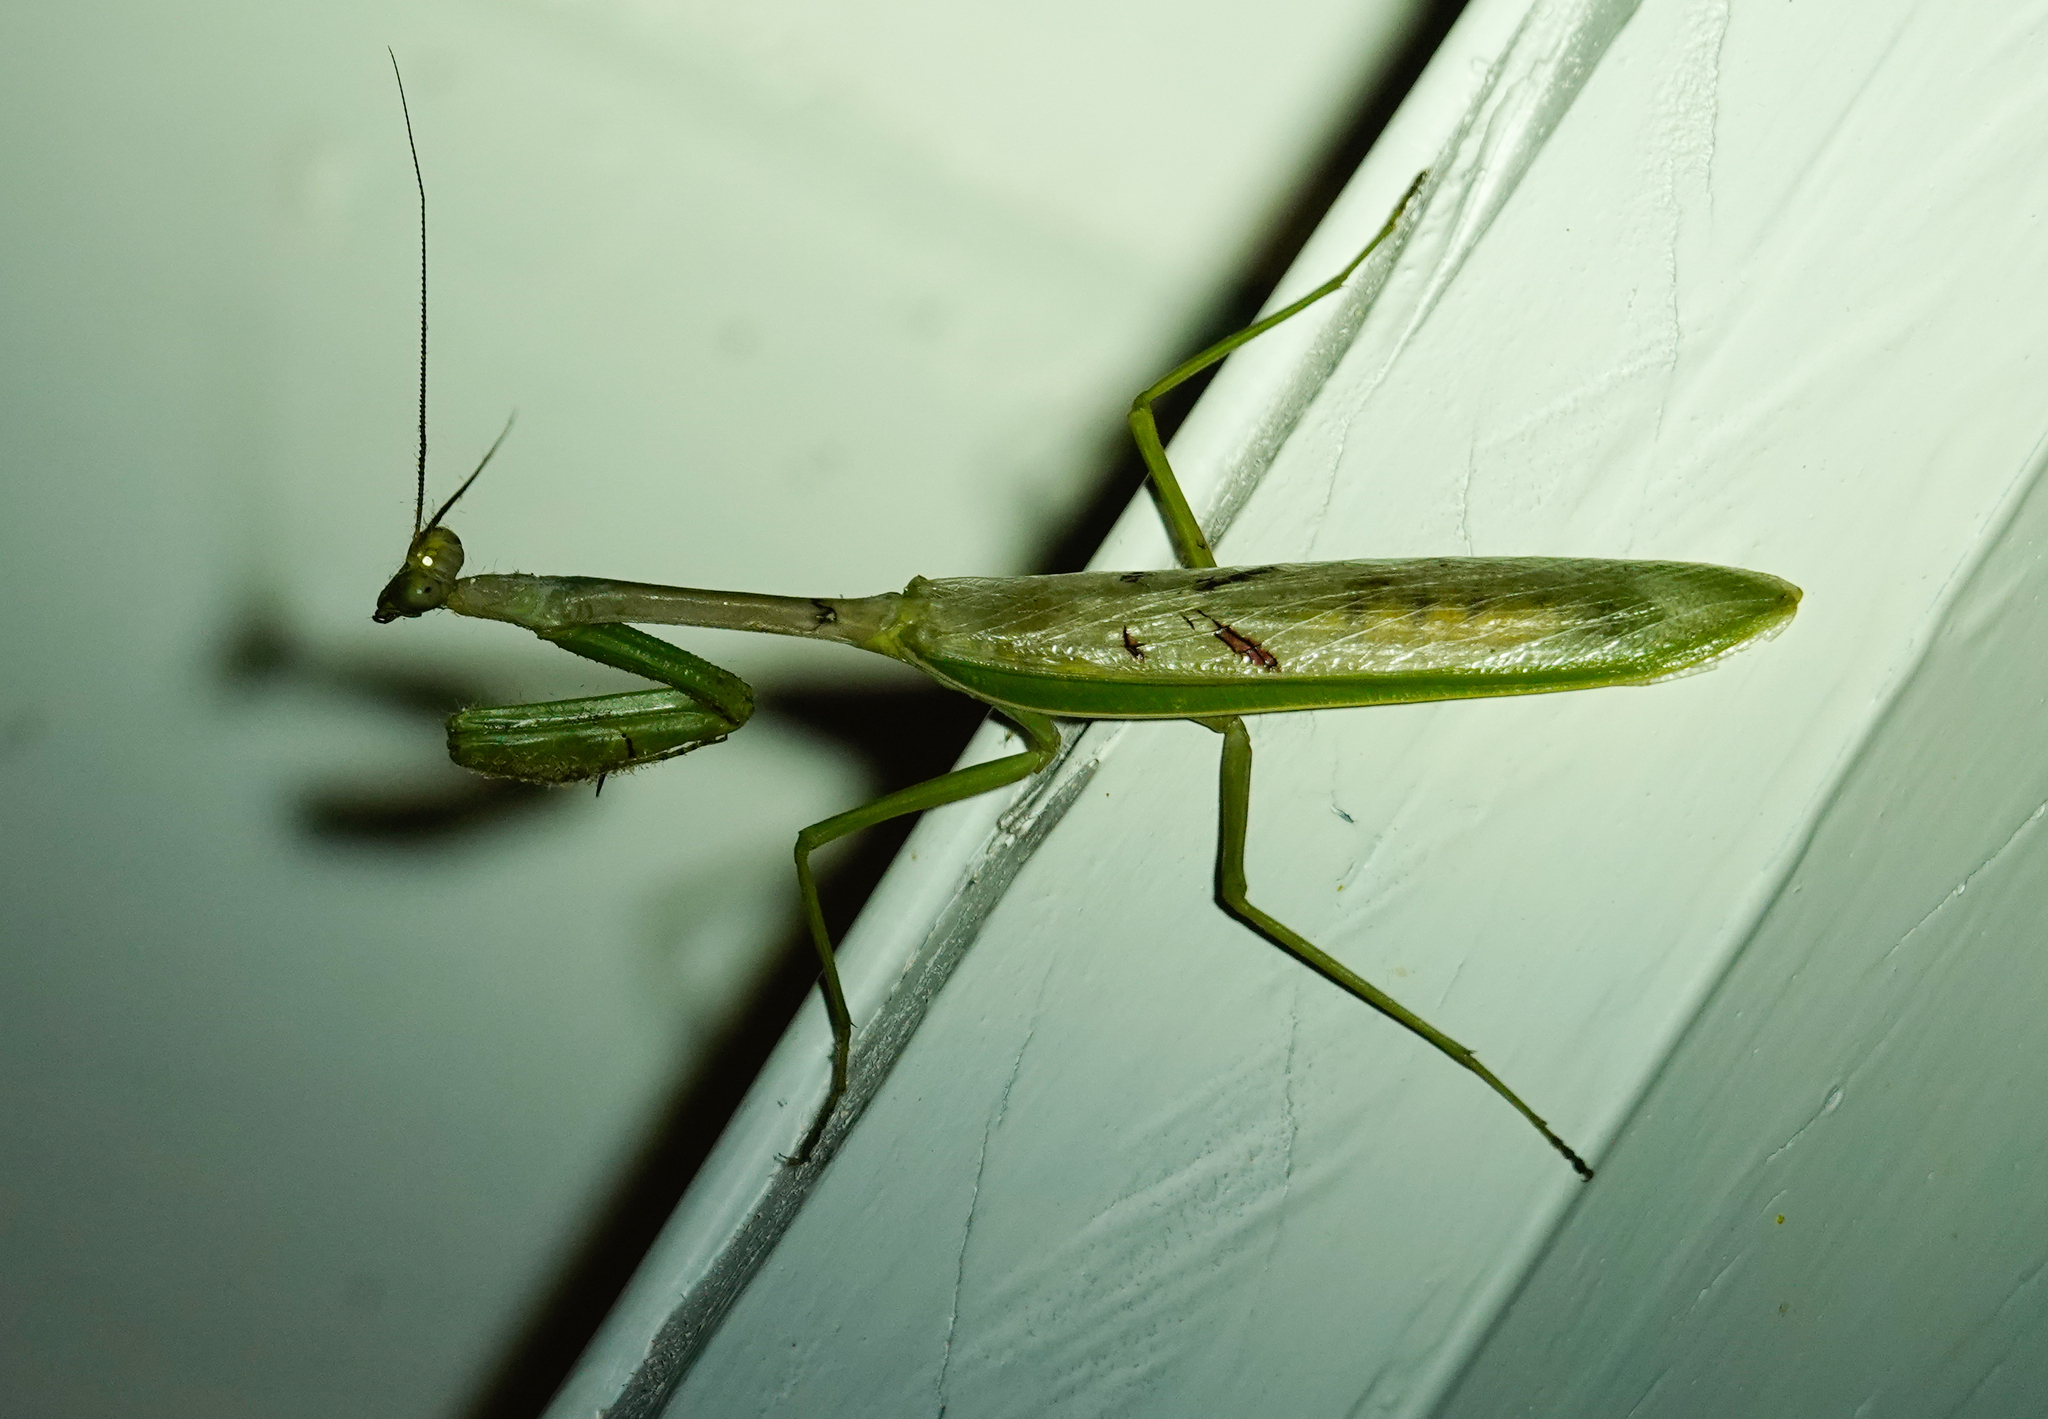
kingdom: Animalia
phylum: Arthropoda
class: Insecta
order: Mantodea
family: Mantidae
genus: Stagmatoptera
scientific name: Stagmatoptera supplicaria
